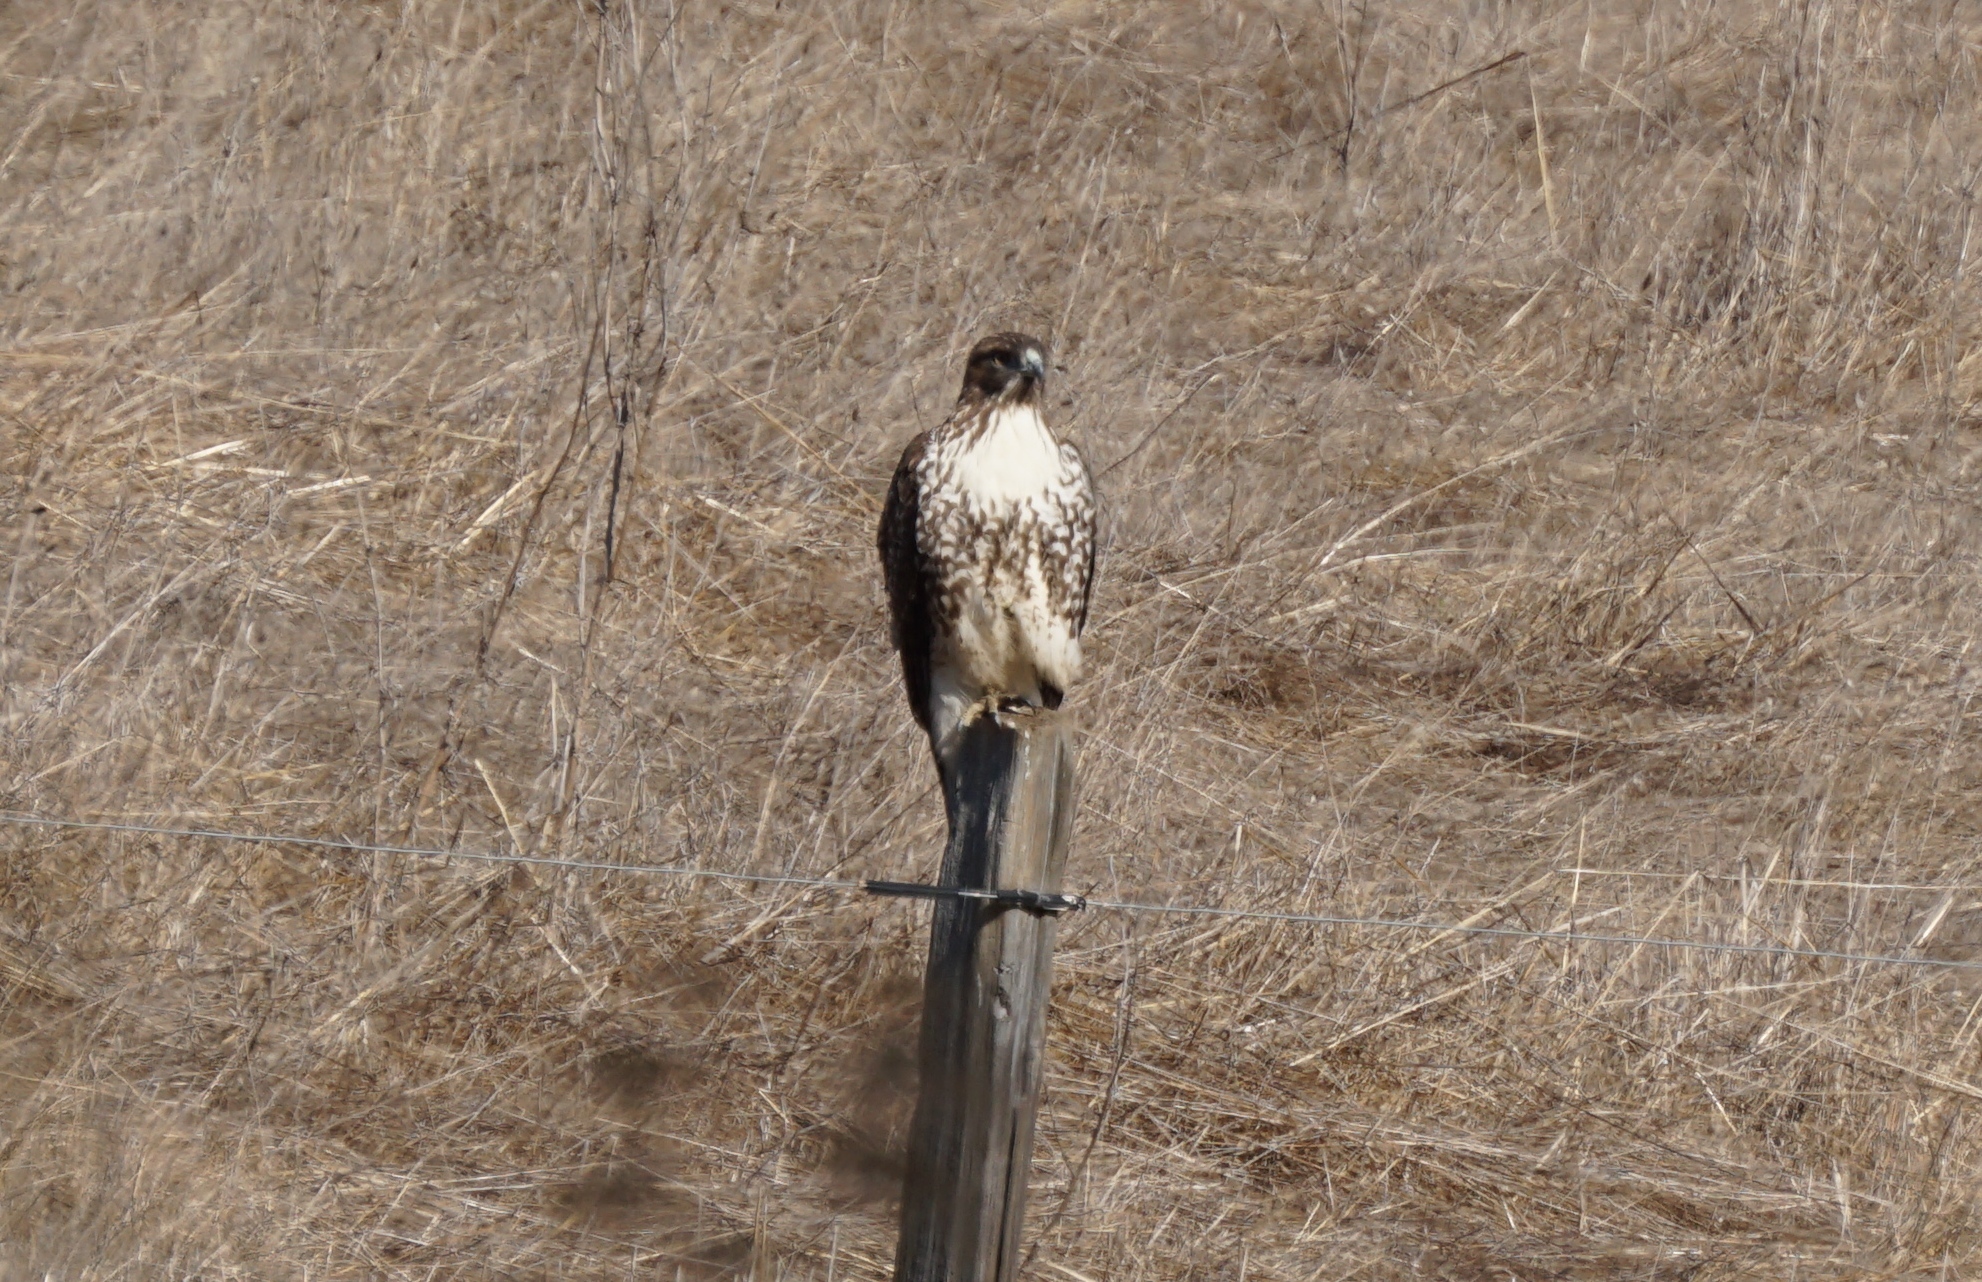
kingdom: Animalia
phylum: Chordata
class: Aves
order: Accipitriformes
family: Accipitridae
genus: Buteo
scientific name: Buteo jamaicensis
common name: Red-tailed hawk
